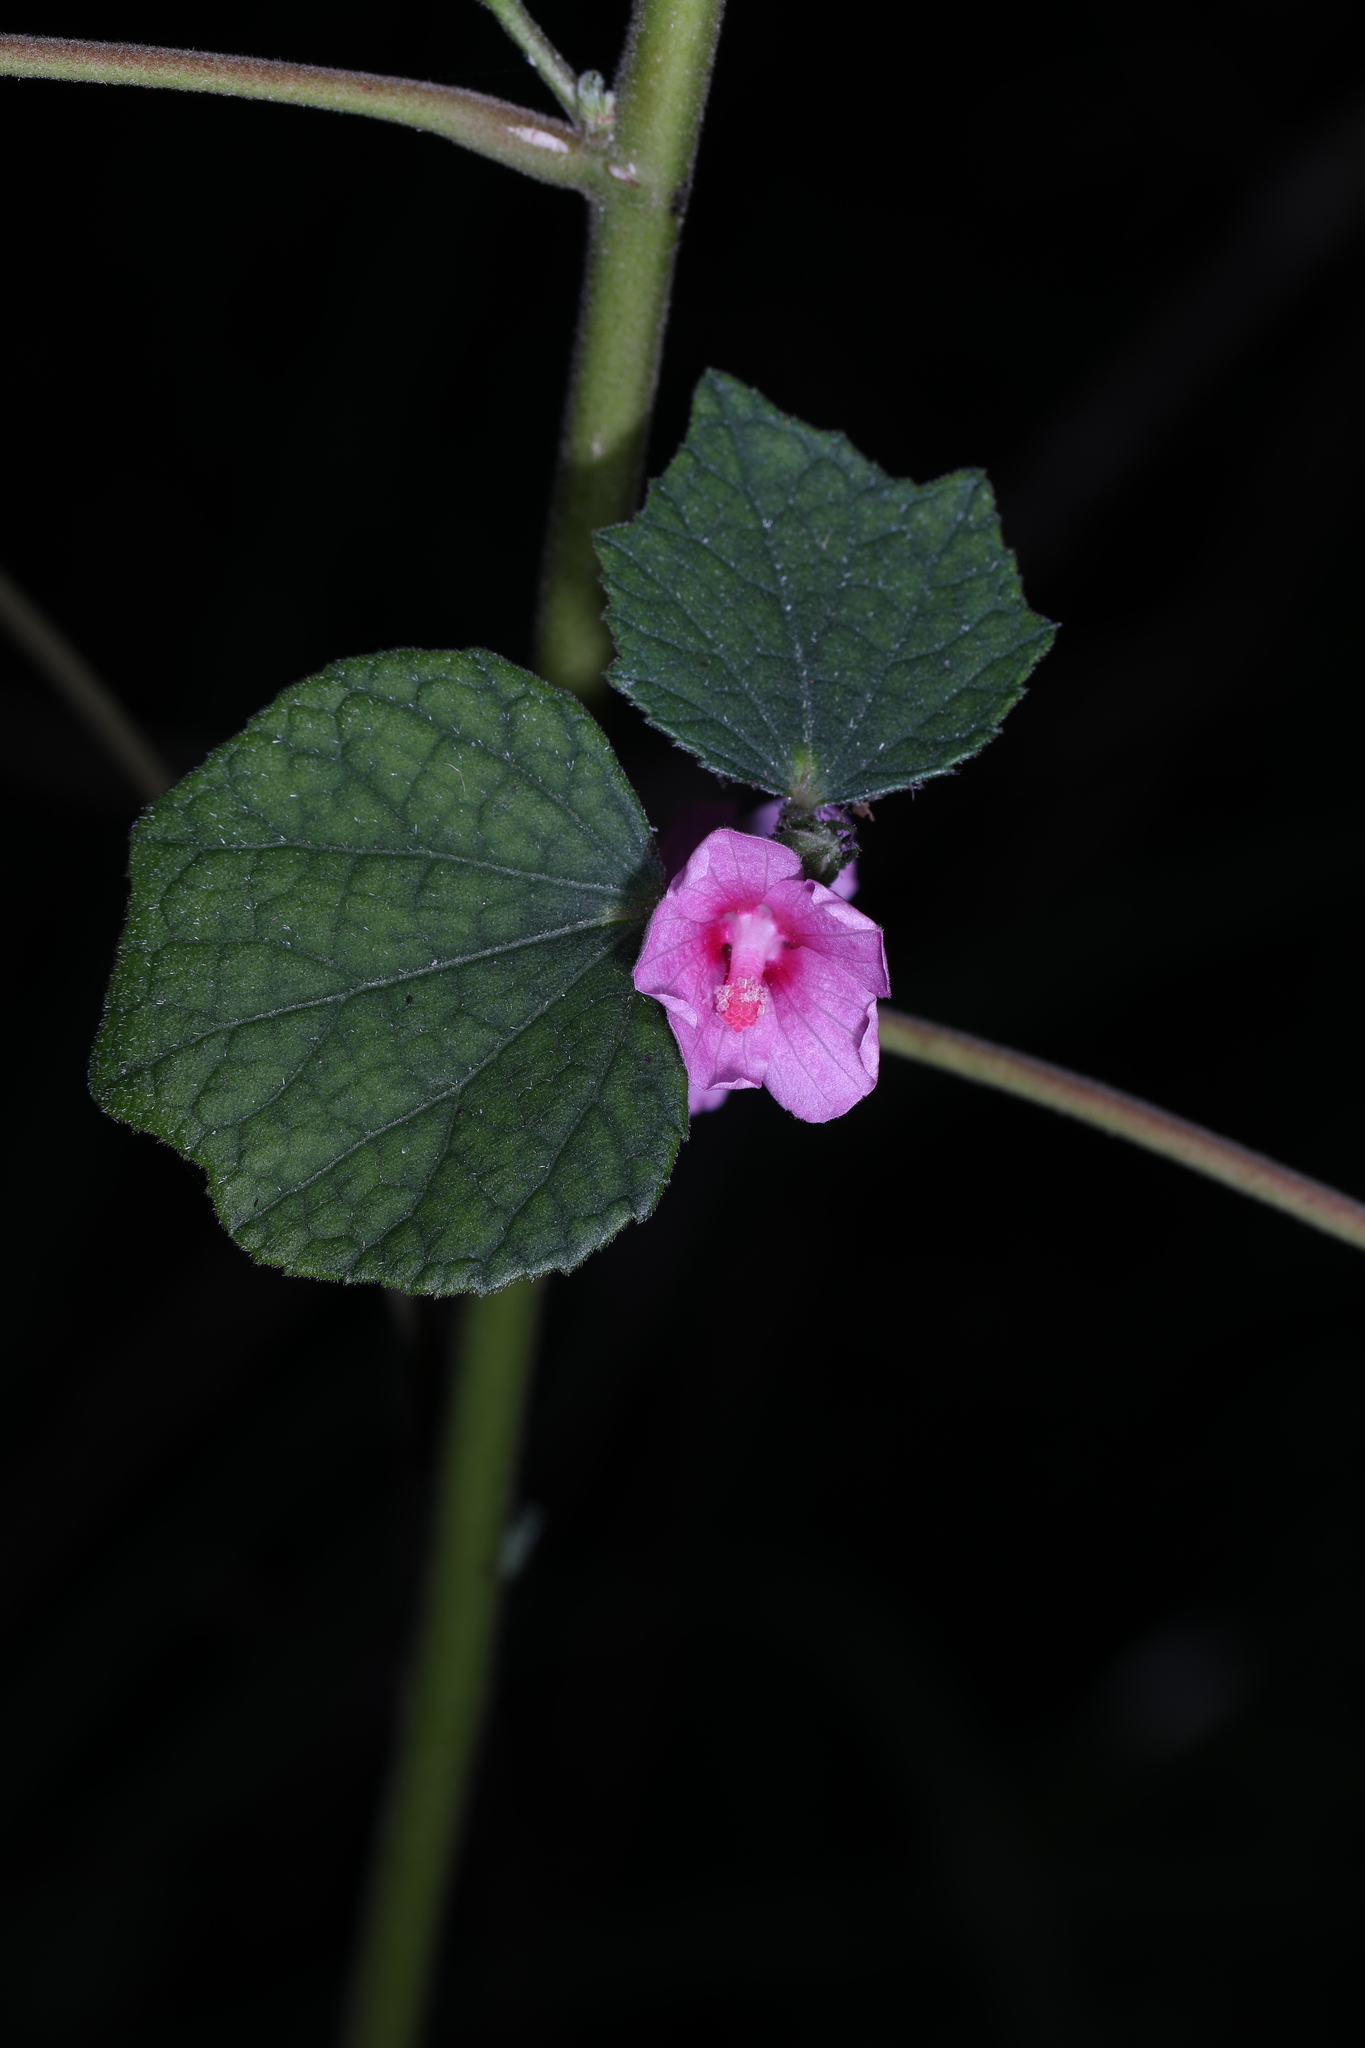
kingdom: Plantae
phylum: Tracheophyta
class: Magnoliopsida
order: Malvales
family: Malvaceae
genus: Urena
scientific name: Urena lobata
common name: Caesarweed
